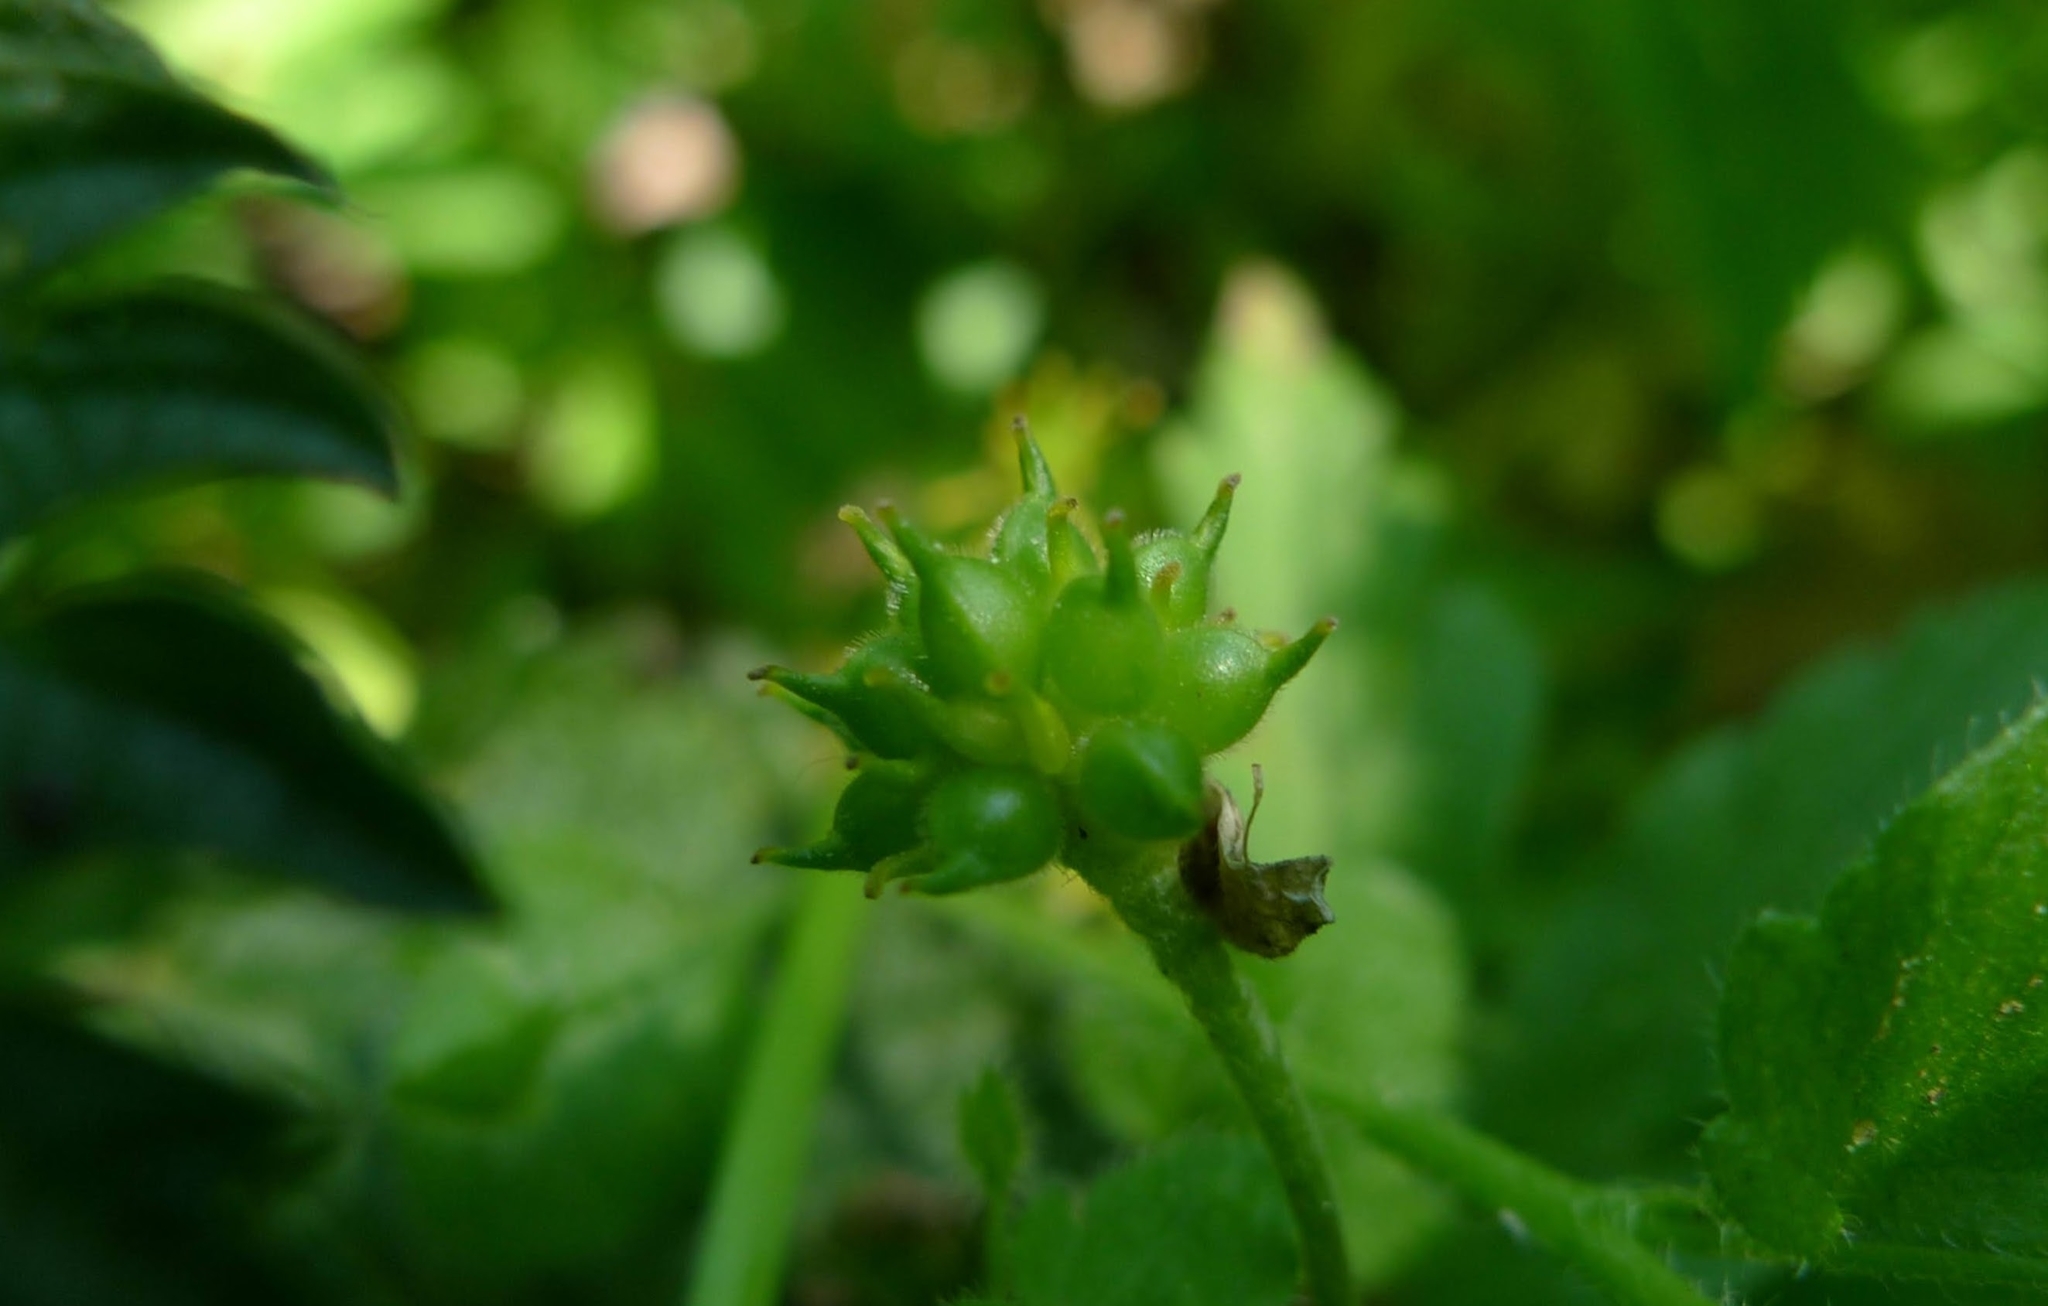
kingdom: Plantae
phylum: Tracheophyta
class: Magnoliopsida
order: Ranunculales
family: Ranunculaceae
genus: Anemone
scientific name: Anemone ranunculoides
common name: Yellow anemone
